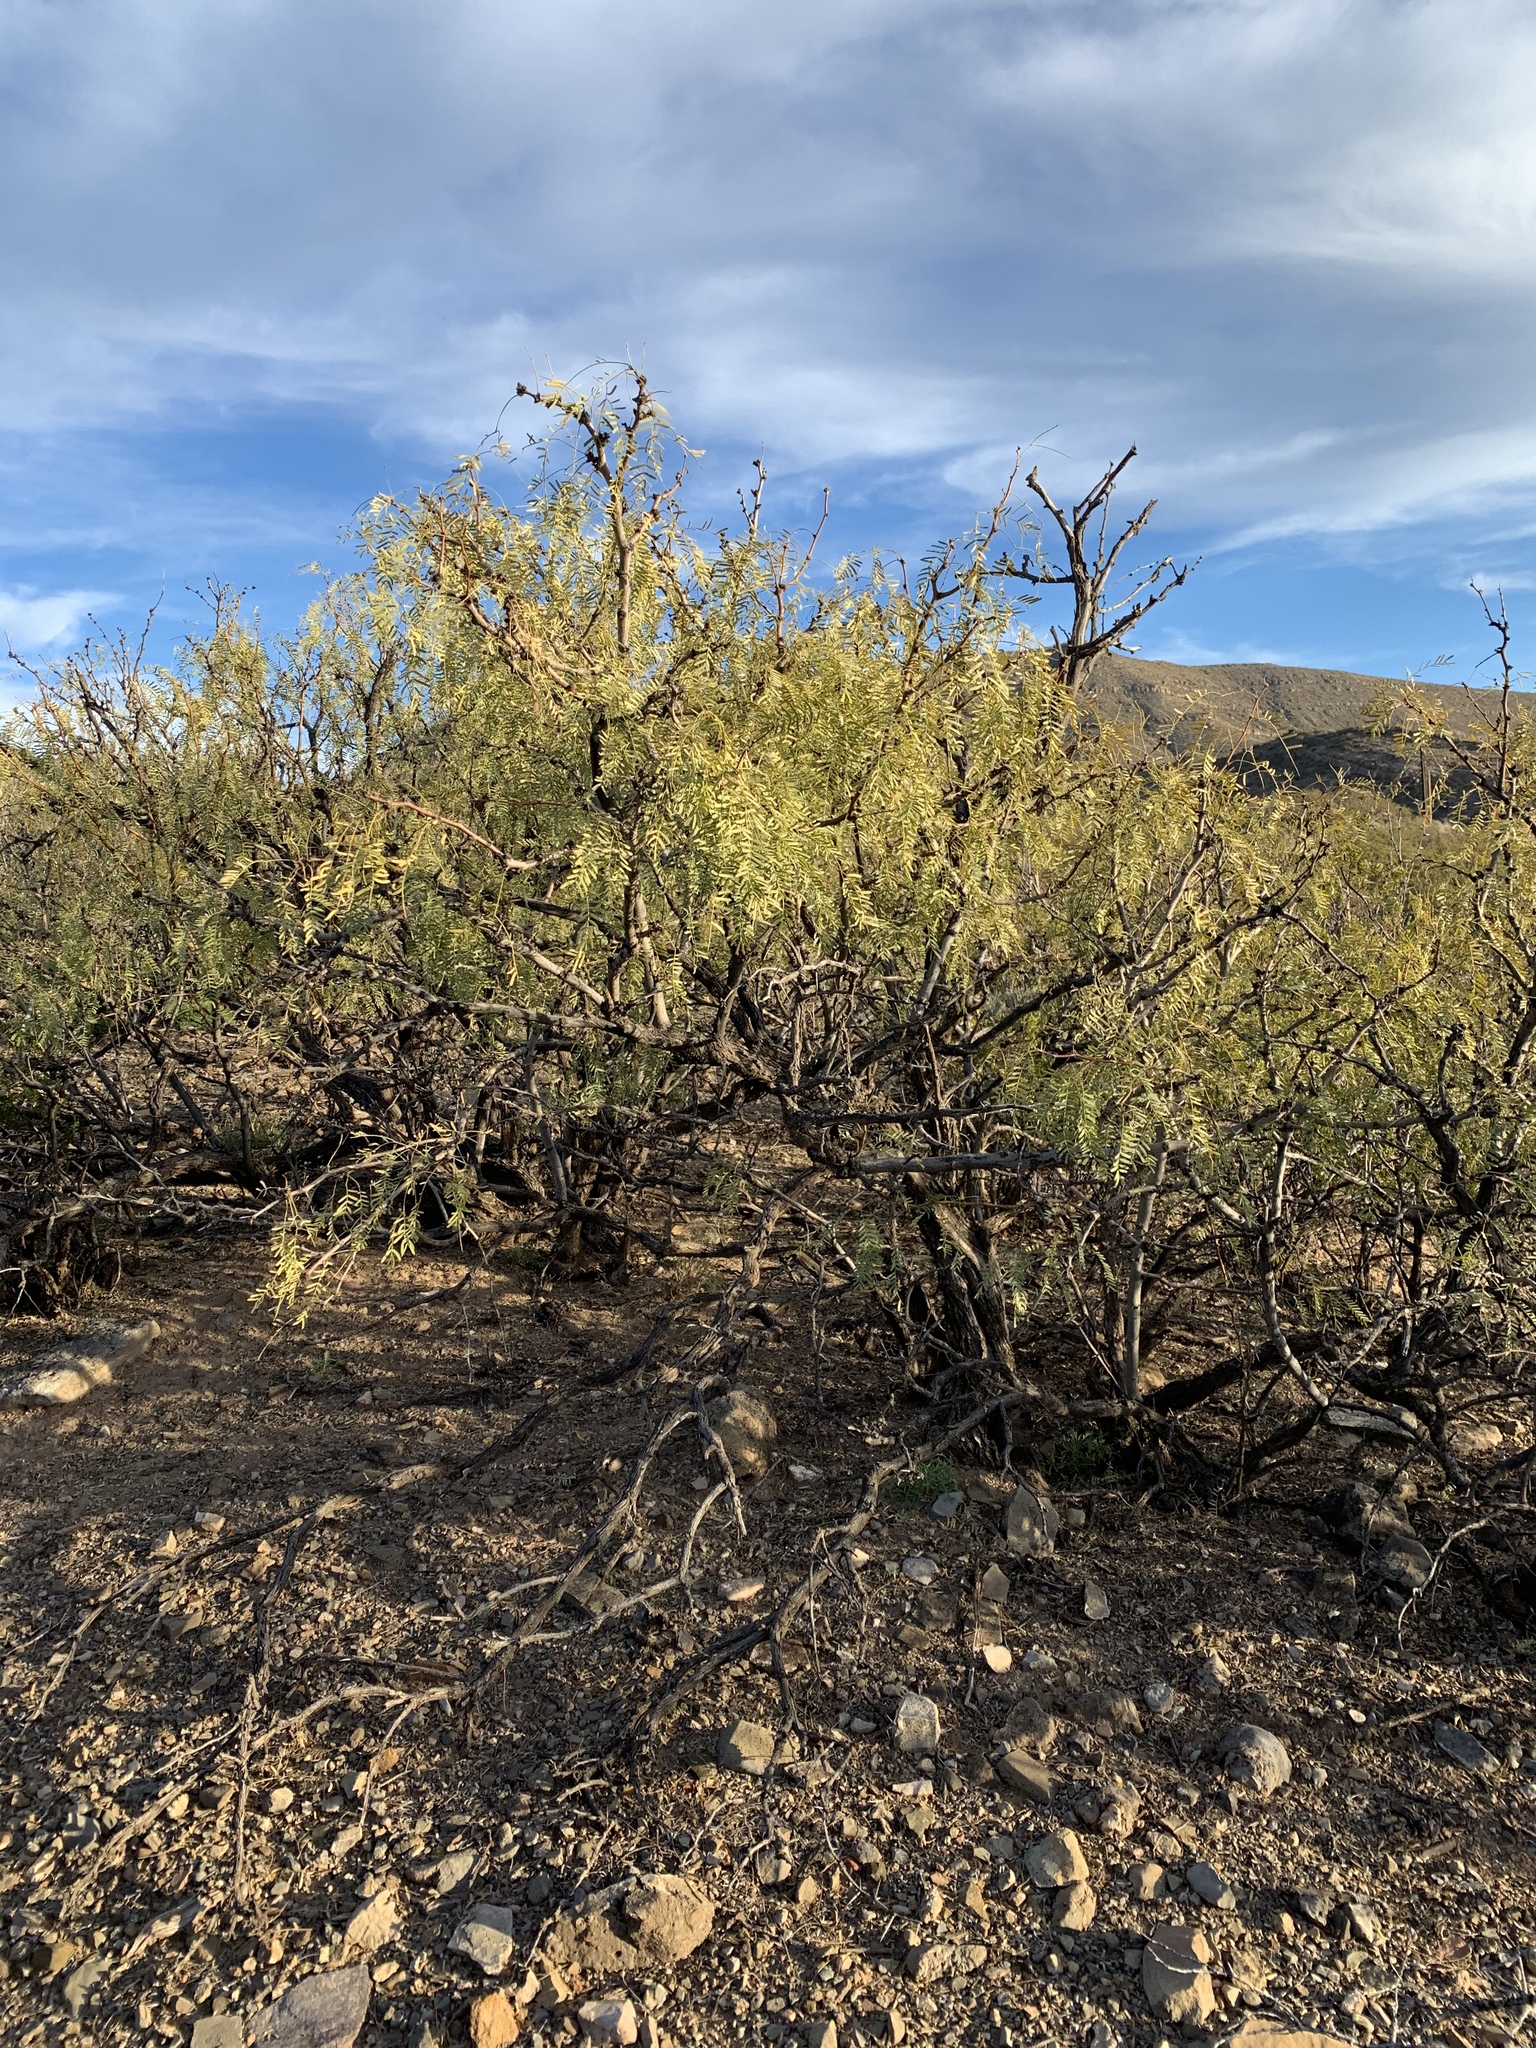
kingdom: Plantae
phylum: Tracheophyta
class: Magnoliopsida
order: Fabales
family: Fabaceae
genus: Prosopis
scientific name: Prosopis glandulosa
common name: Honey mesquite
